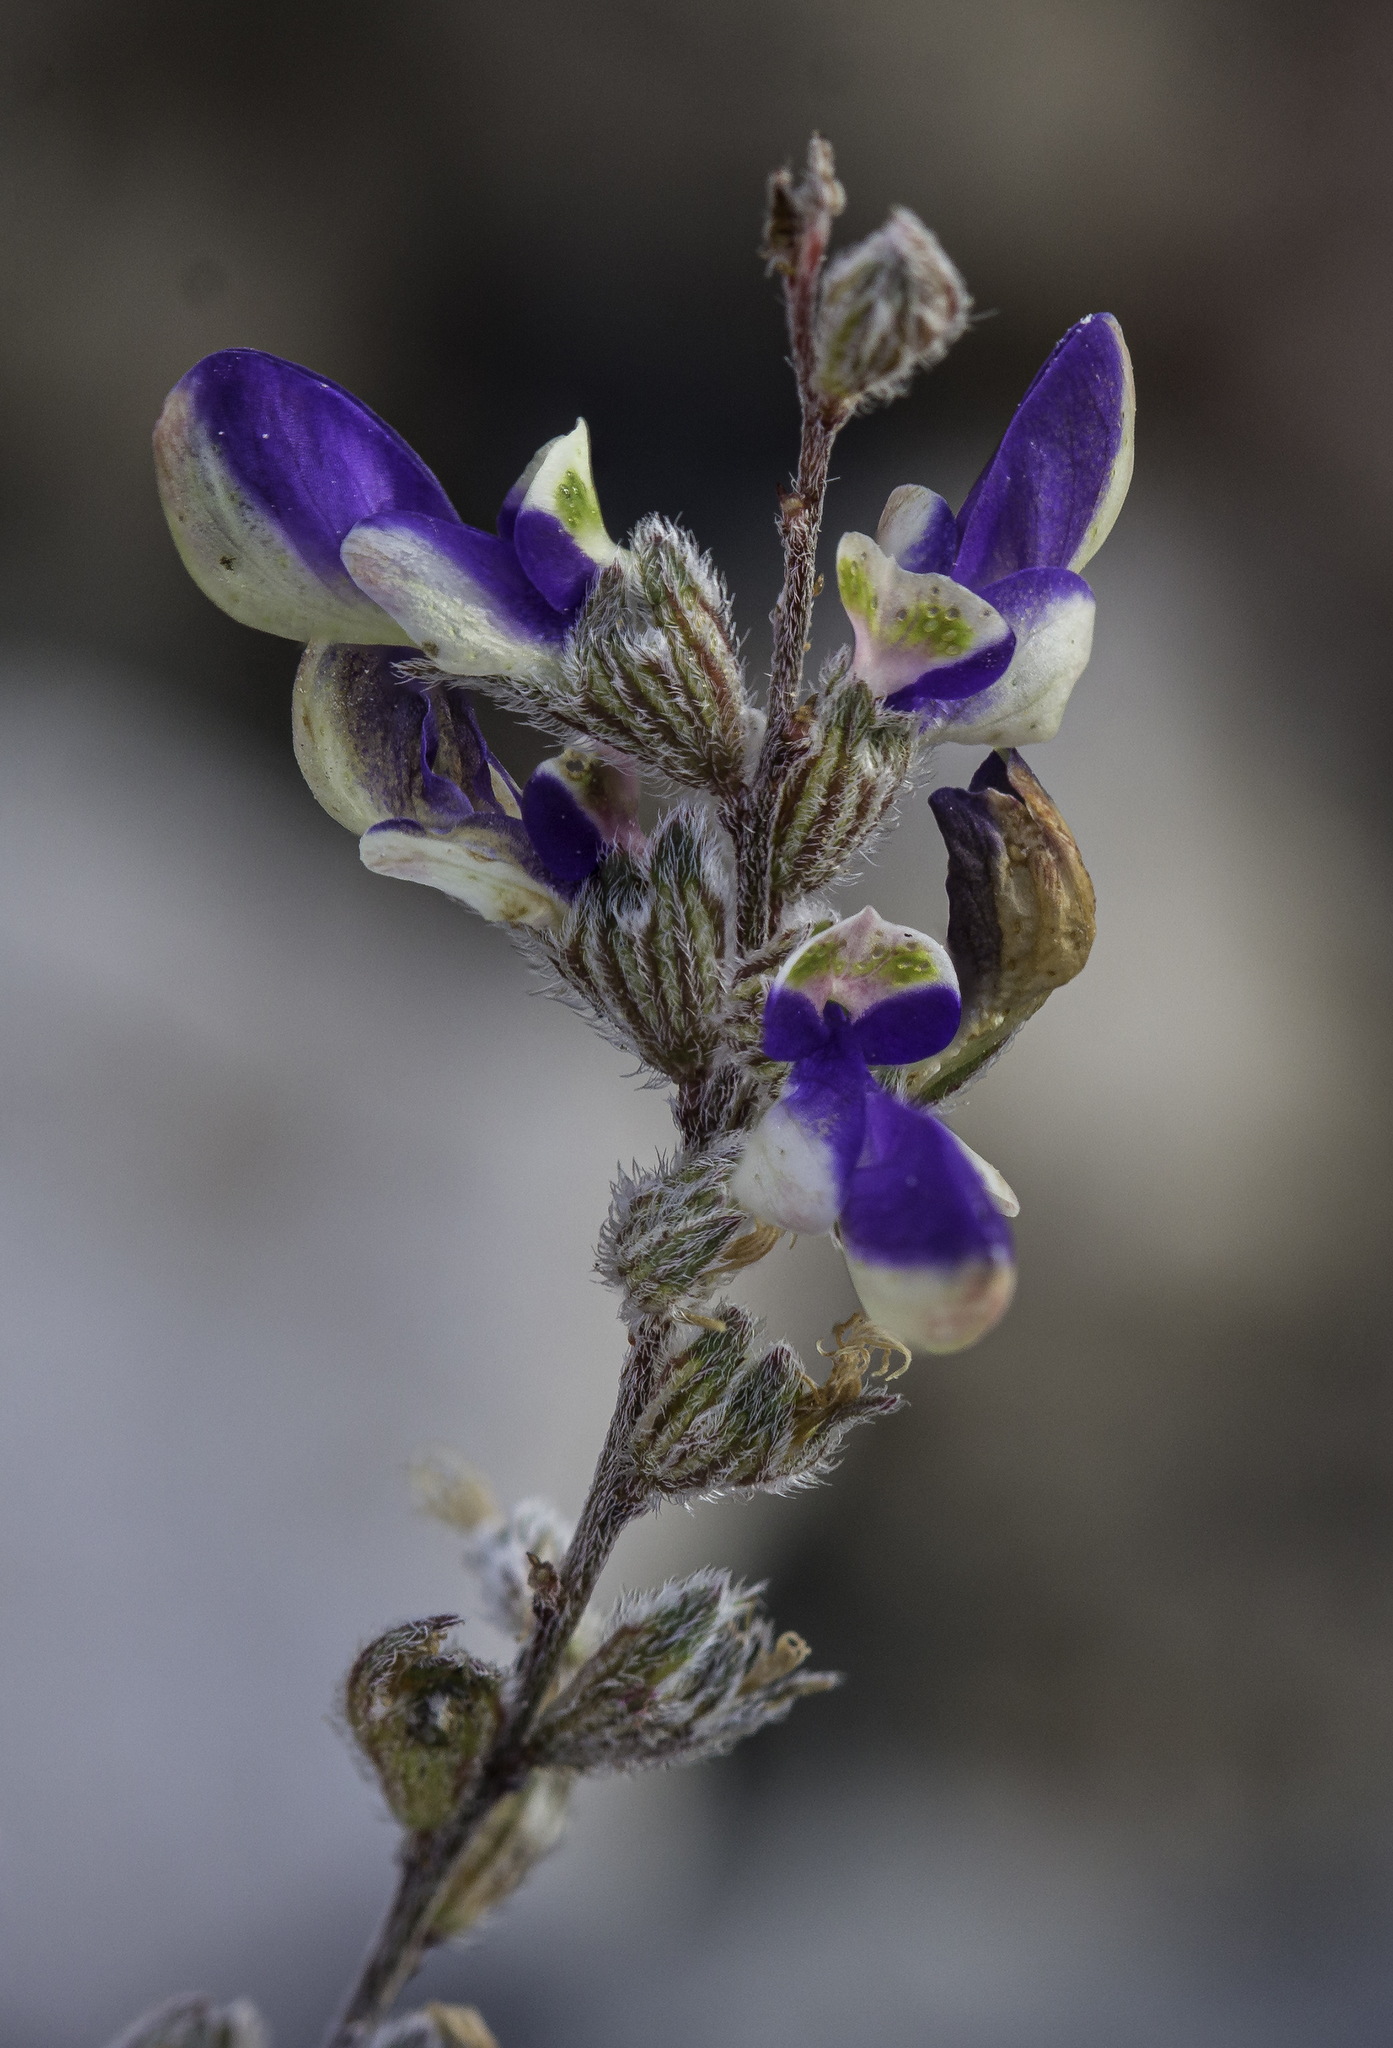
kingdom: Plantae
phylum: Tracheophyta
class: Magnoliopsida
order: Fabales
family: Fabaceae
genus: Marina
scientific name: Marina parryi
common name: Parry's marina
